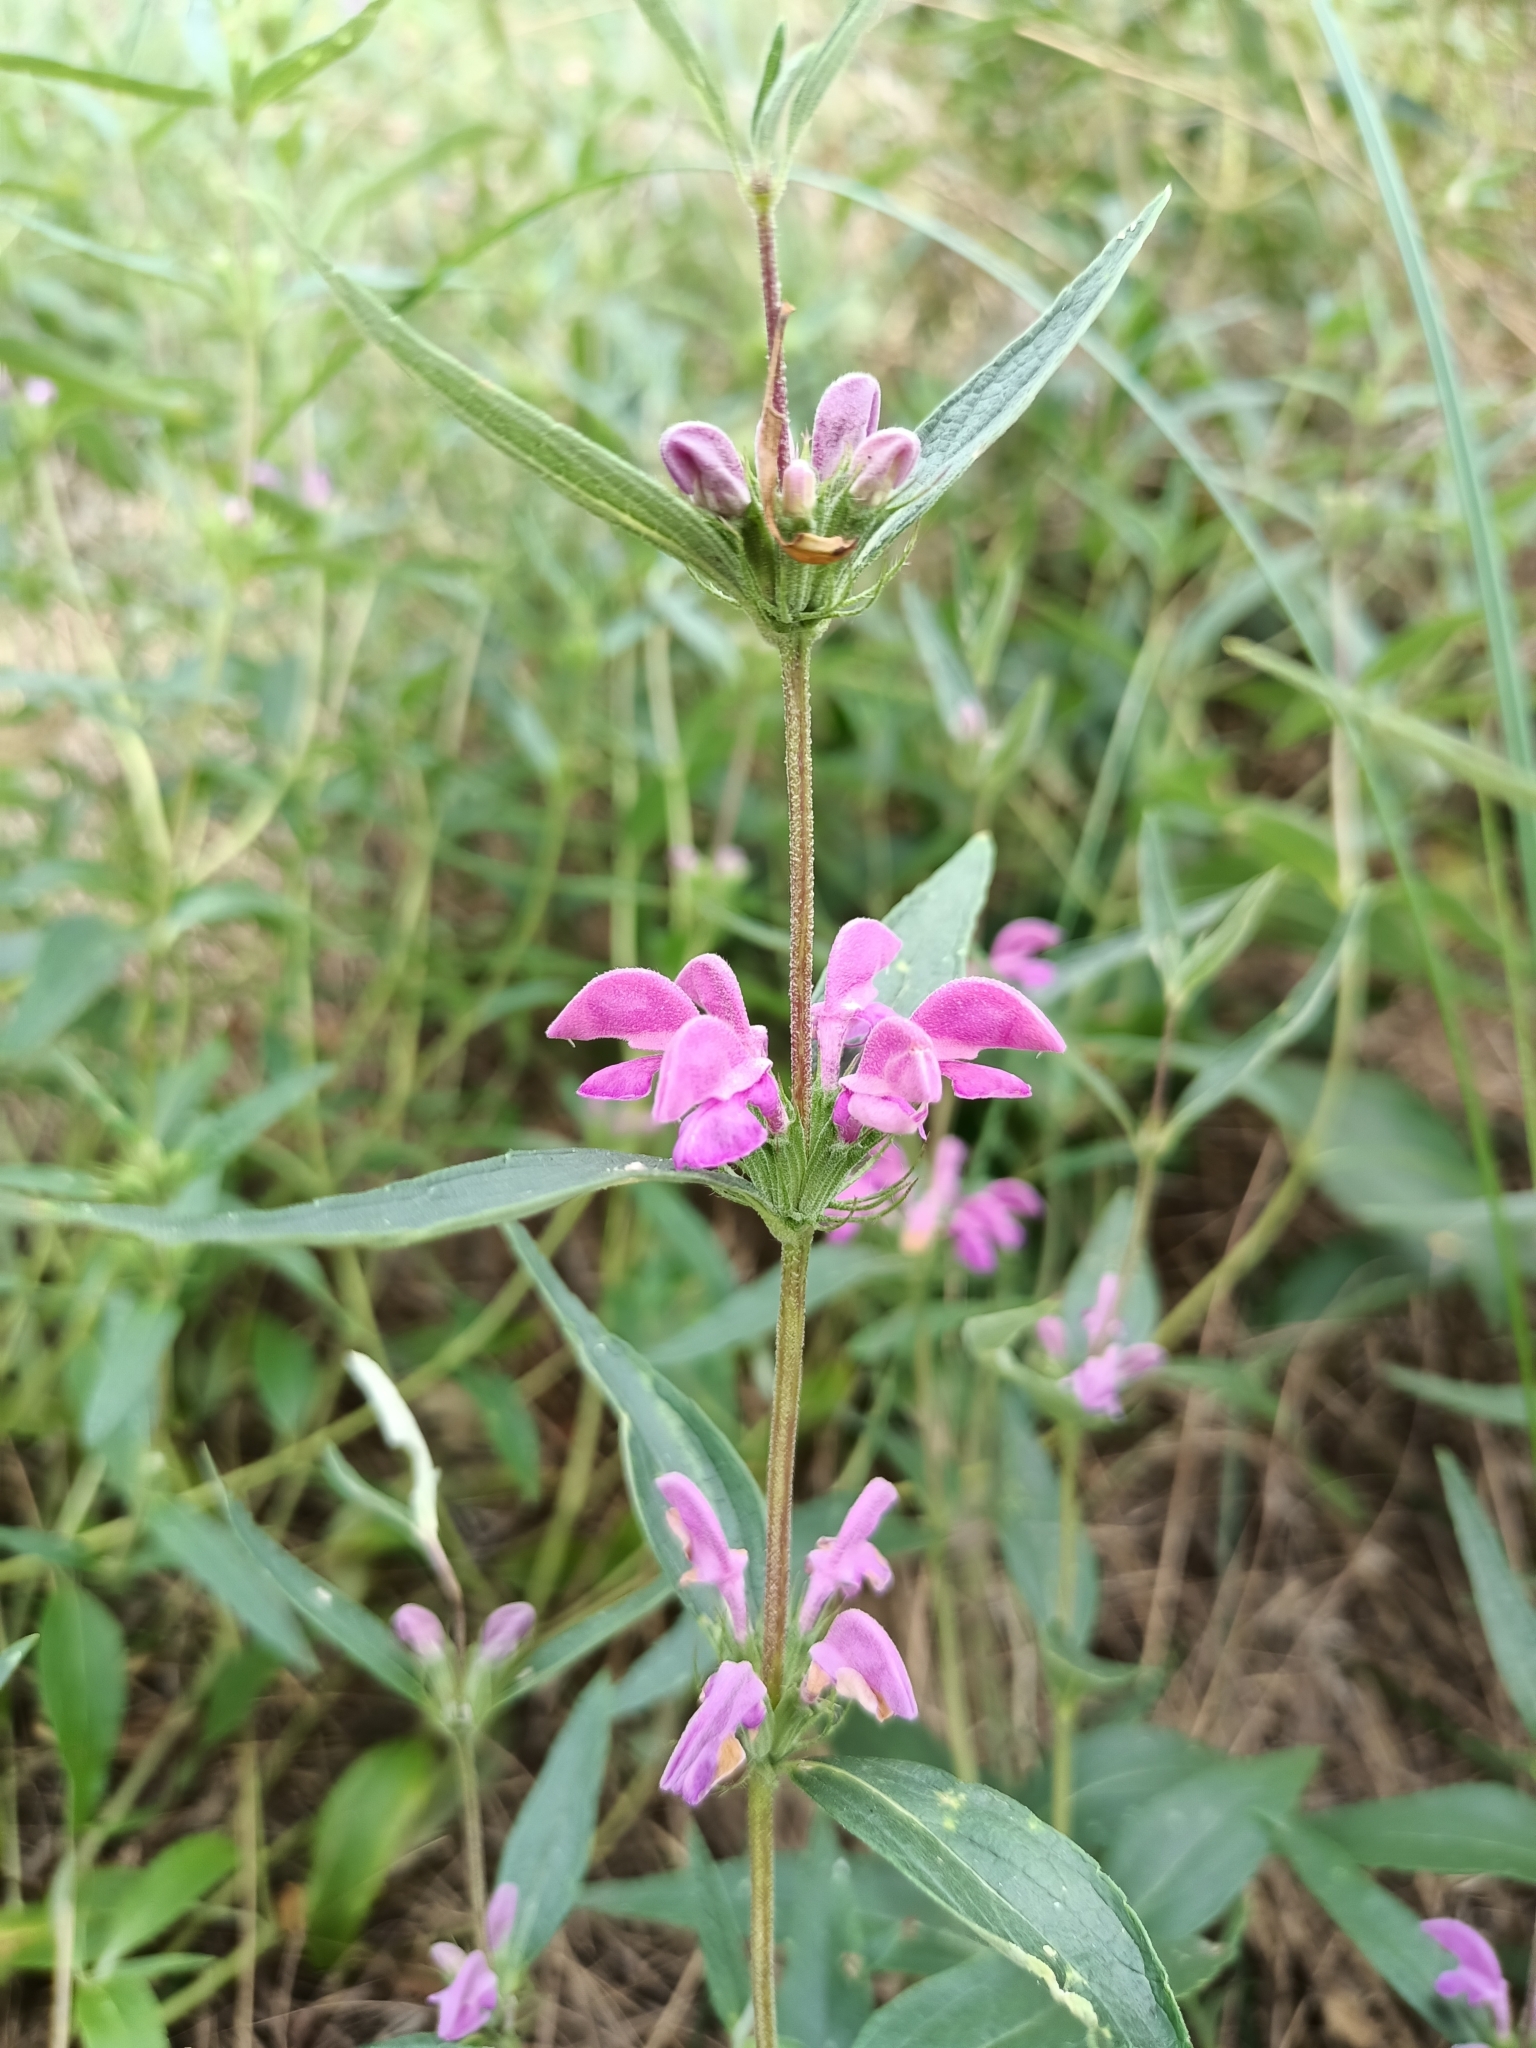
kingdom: Plantae
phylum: Tracheophyta
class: Magnoliopsida
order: Lamiales
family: Lamiaceae
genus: Phlomis
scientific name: Phlomis herba-venti
